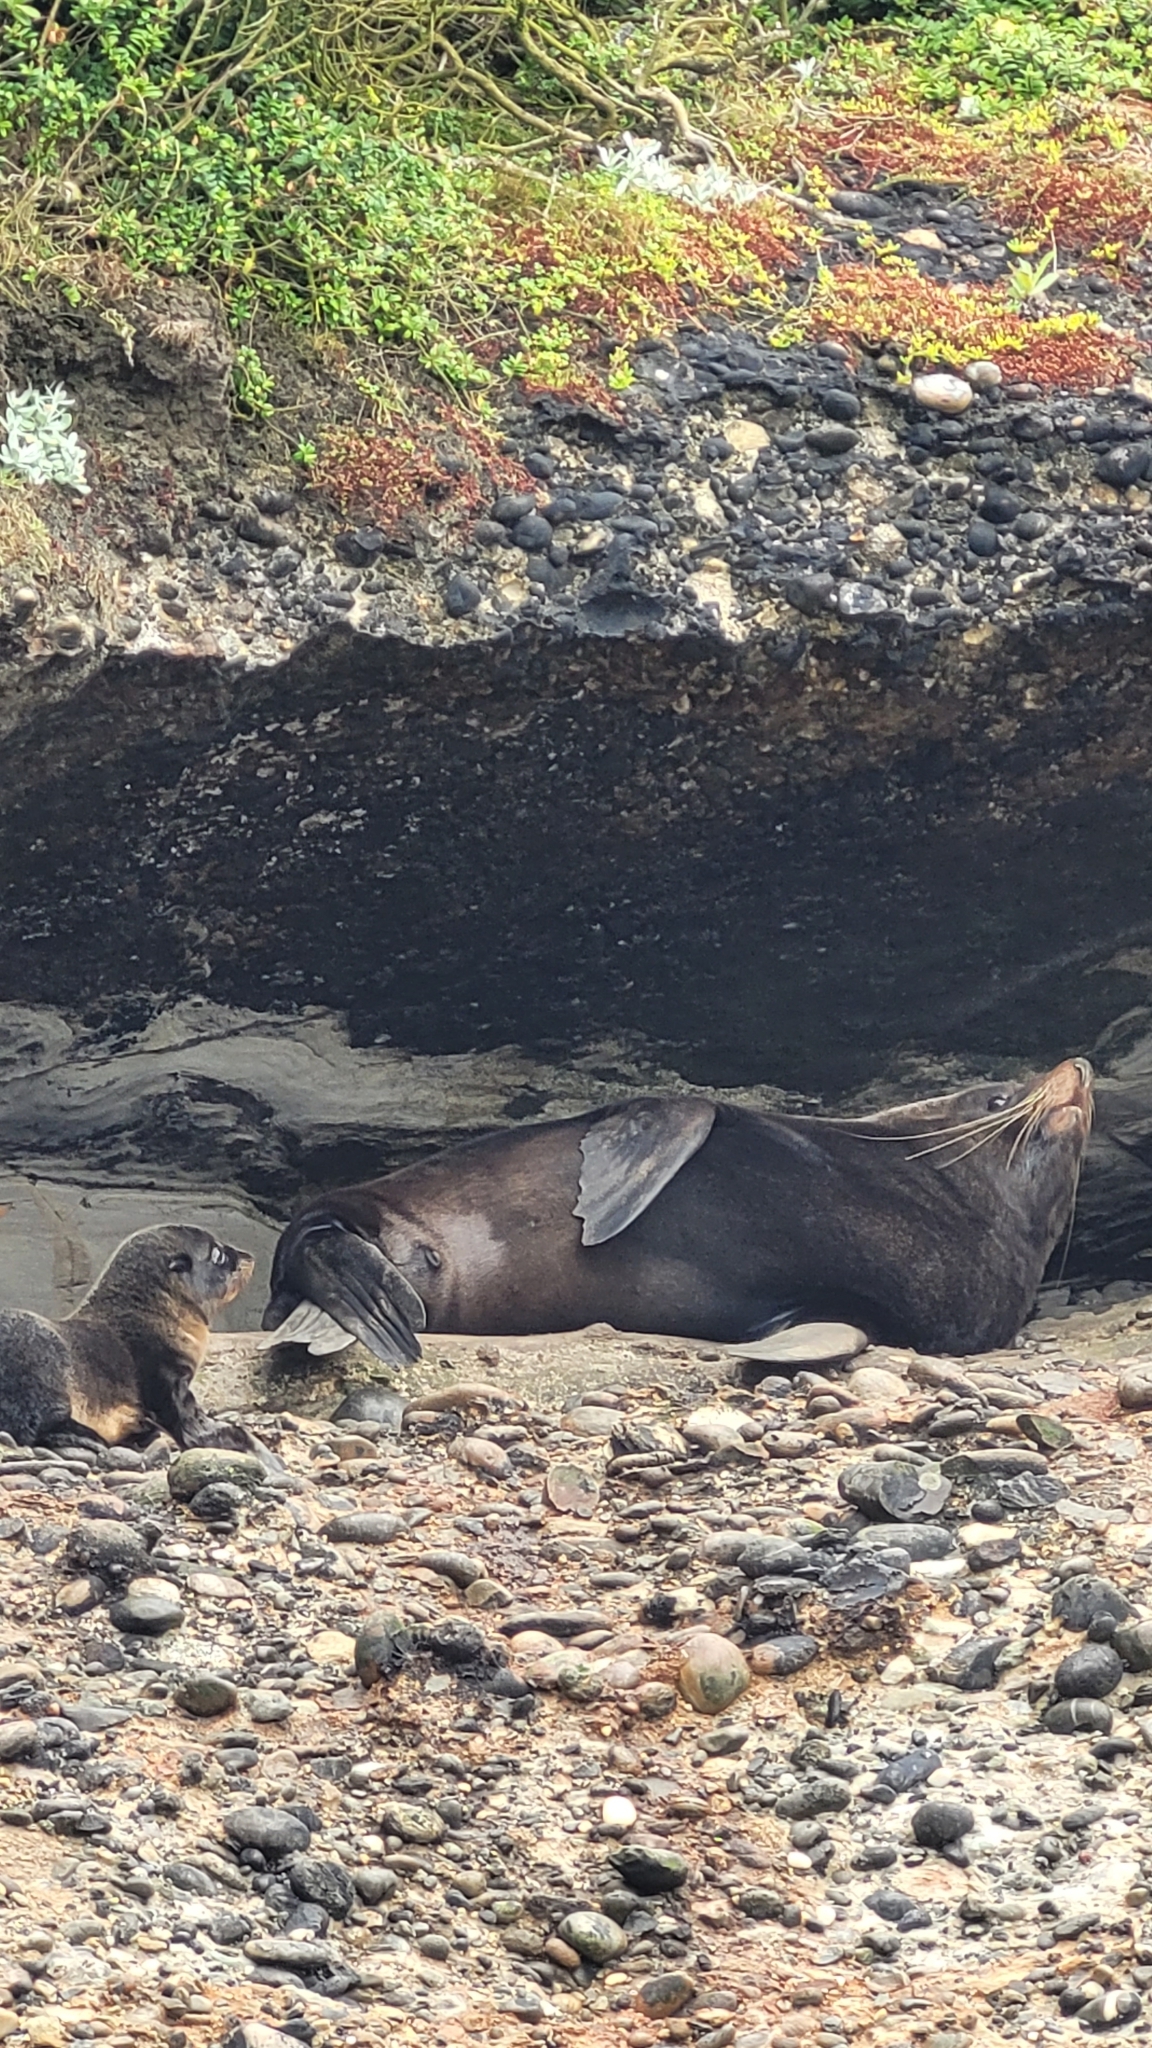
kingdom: Animalia
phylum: Chordata
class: Mammalia
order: Carnivora
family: Otariidae
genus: Arctocephalus
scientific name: Arctocephalus forsteri
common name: New zealand fur seal
